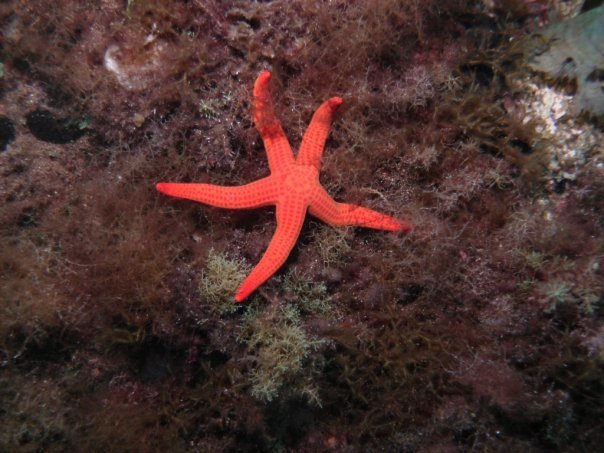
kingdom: Animalia
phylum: Echinodermata
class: Asteroidea
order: Valvatida
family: Ophidiasteridae
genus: Hacelia
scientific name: Hacelia attenuata
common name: Smooth starfish
